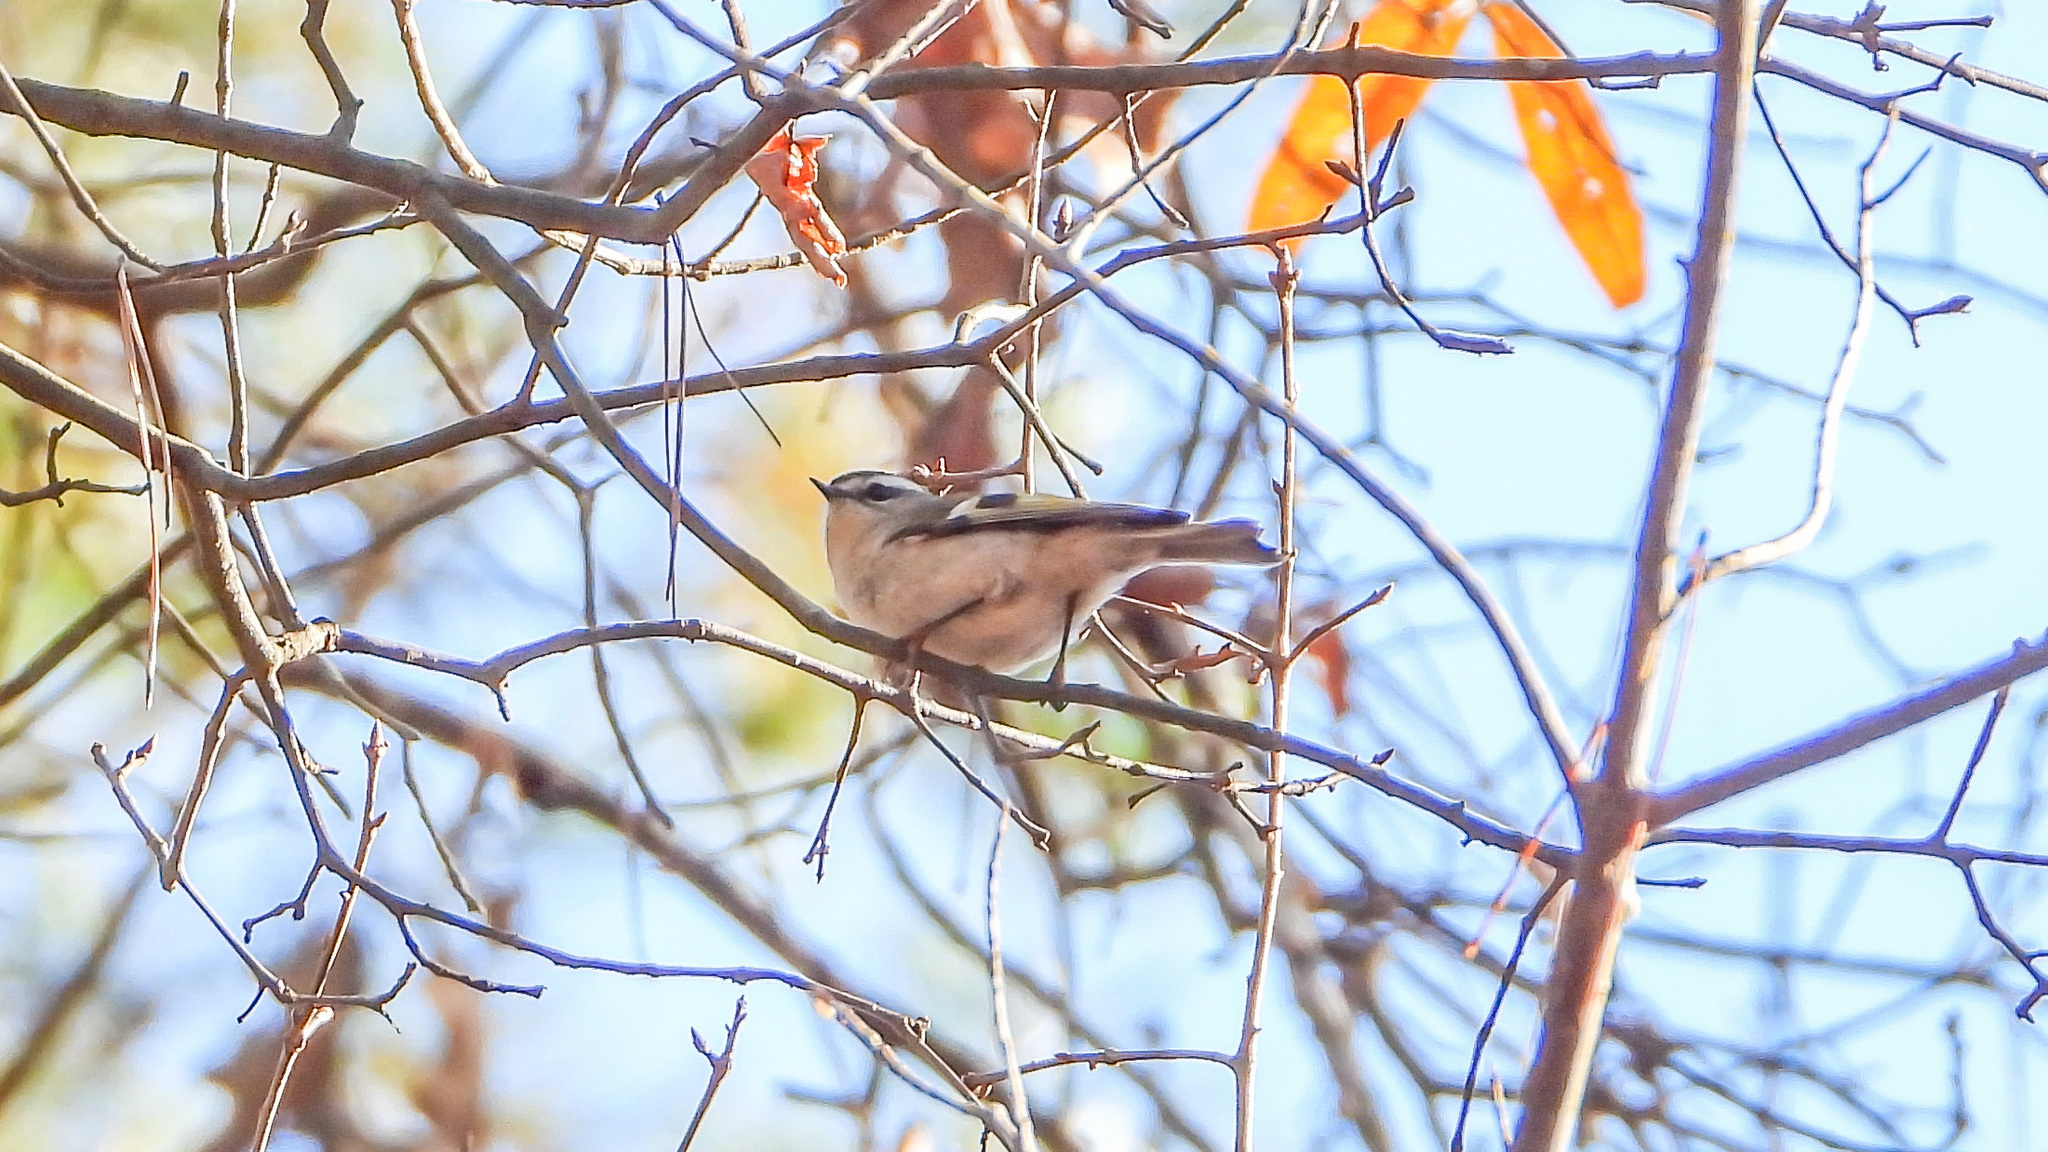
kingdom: Animalia
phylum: Chordata
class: Aves
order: Passeriformes
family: Regulidae
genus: Regulus
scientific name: Regulus satrapa
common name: Golden-crowned kinglet
